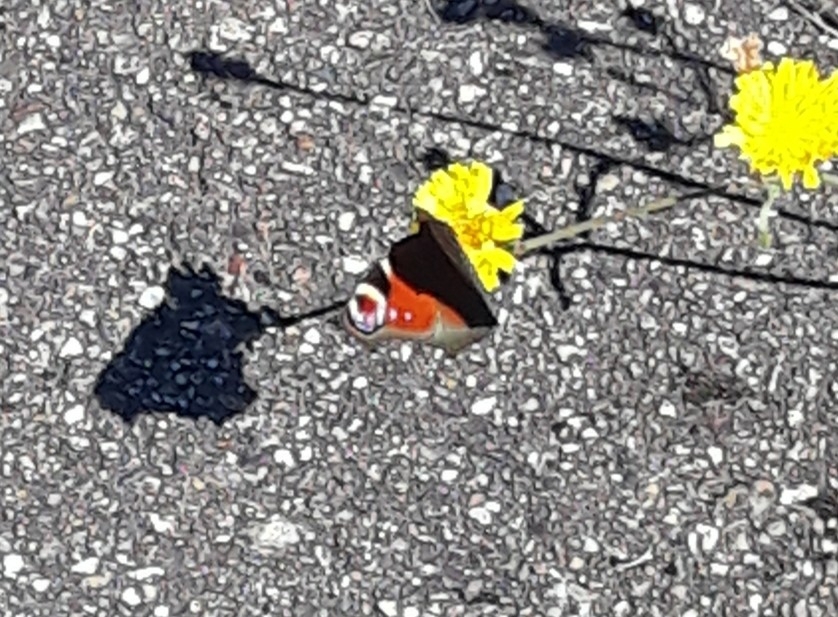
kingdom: Animalia
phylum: Arthropoda
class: Insecta
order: Lepidoptera
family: Nymphalidae
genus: Aglais
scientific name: Aglais io
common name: Peacock
